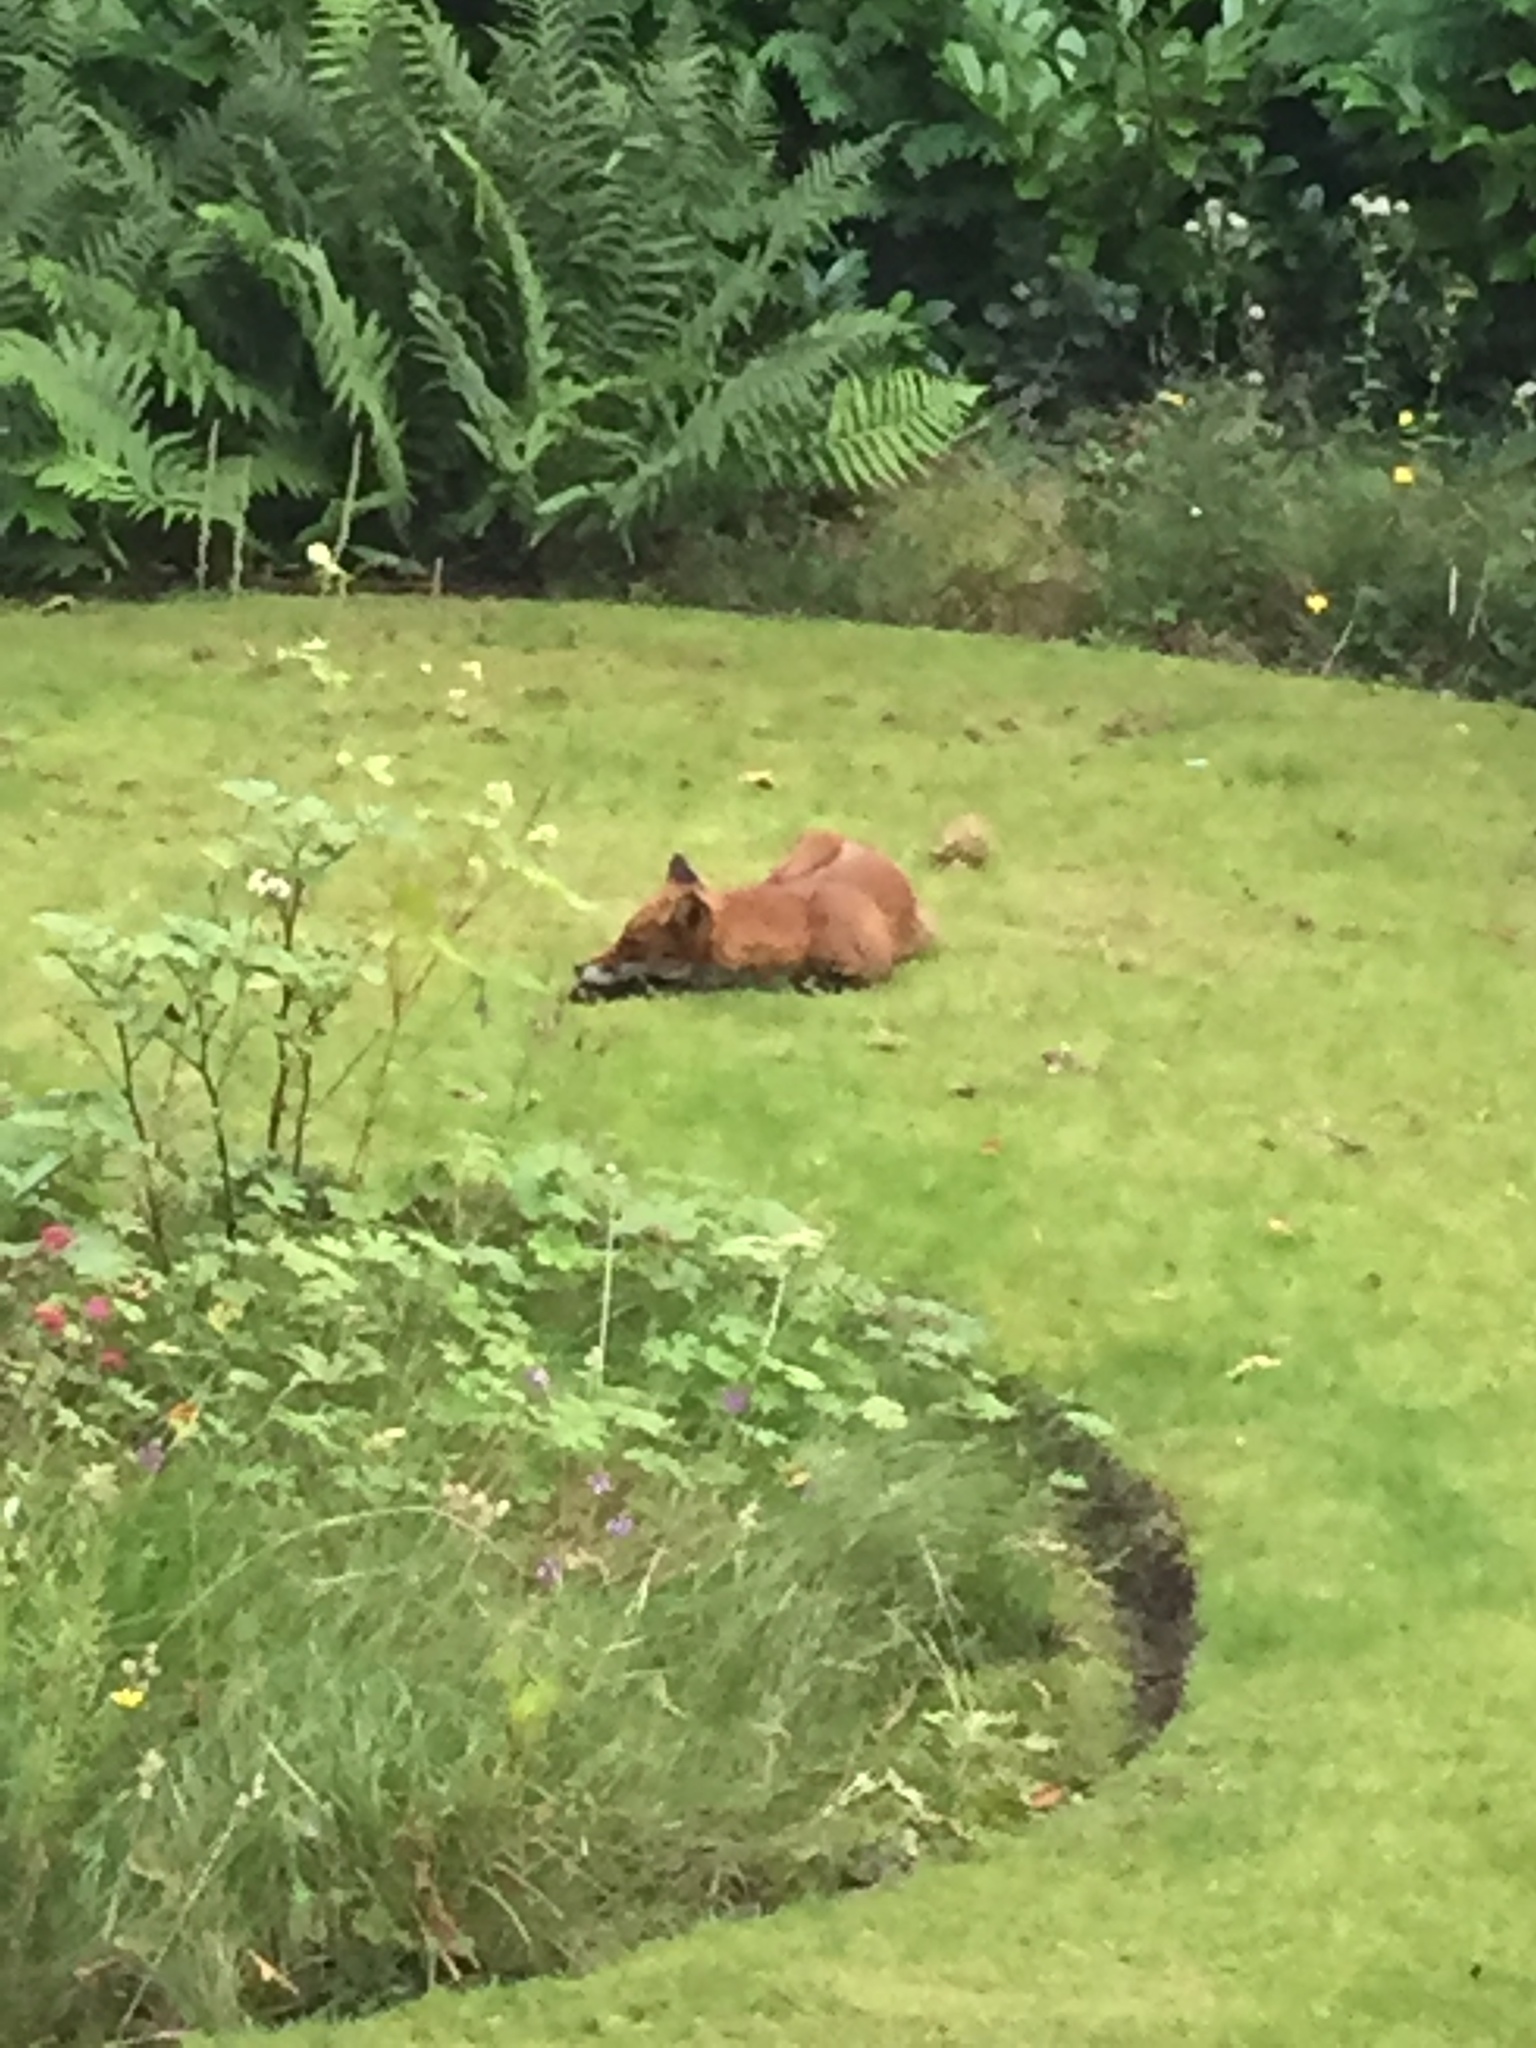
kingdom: Animalia
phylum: Chordata
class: Mammalia
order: Carnivora
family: Canidae
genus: Vulpes
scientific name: Vulpes vulpes
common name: Red fox
